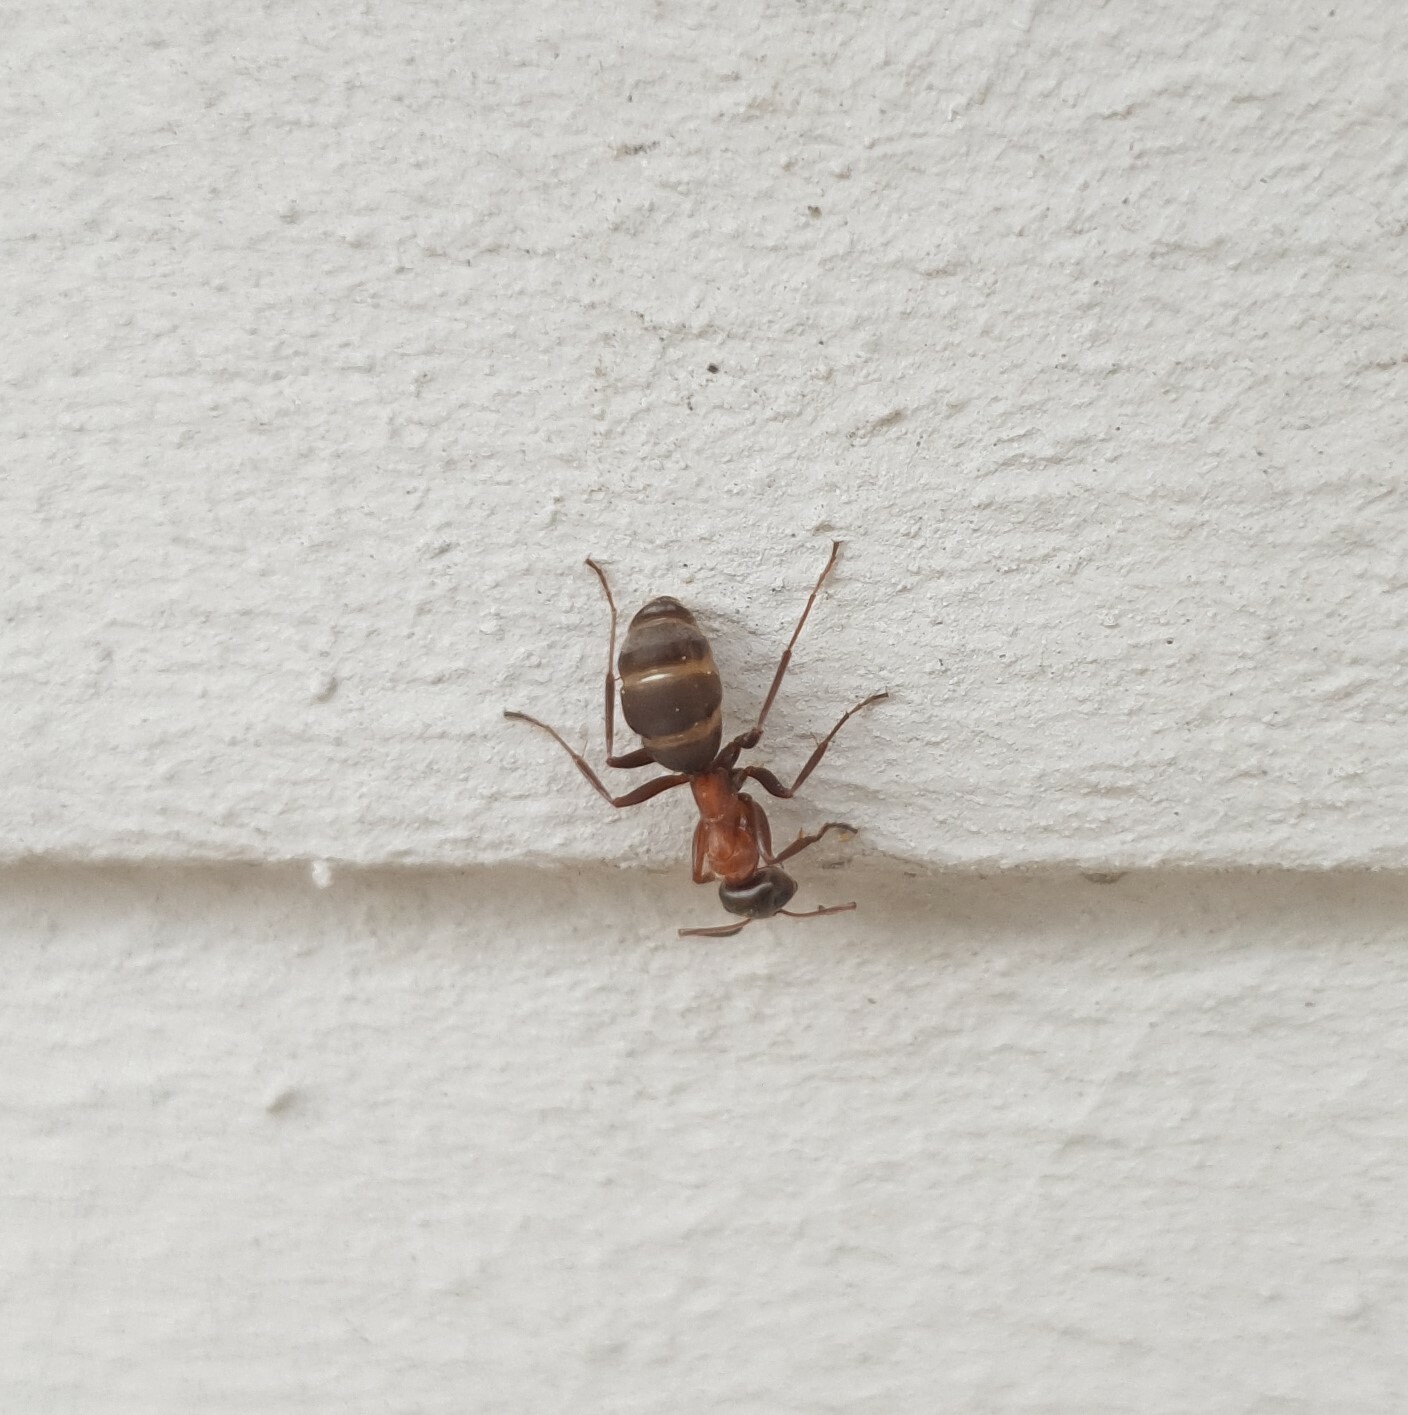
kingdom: Animalia
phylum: Arthropoda
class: Insecta
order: Hymenoptera
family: Formicidae
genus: Formica
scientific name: Formica
